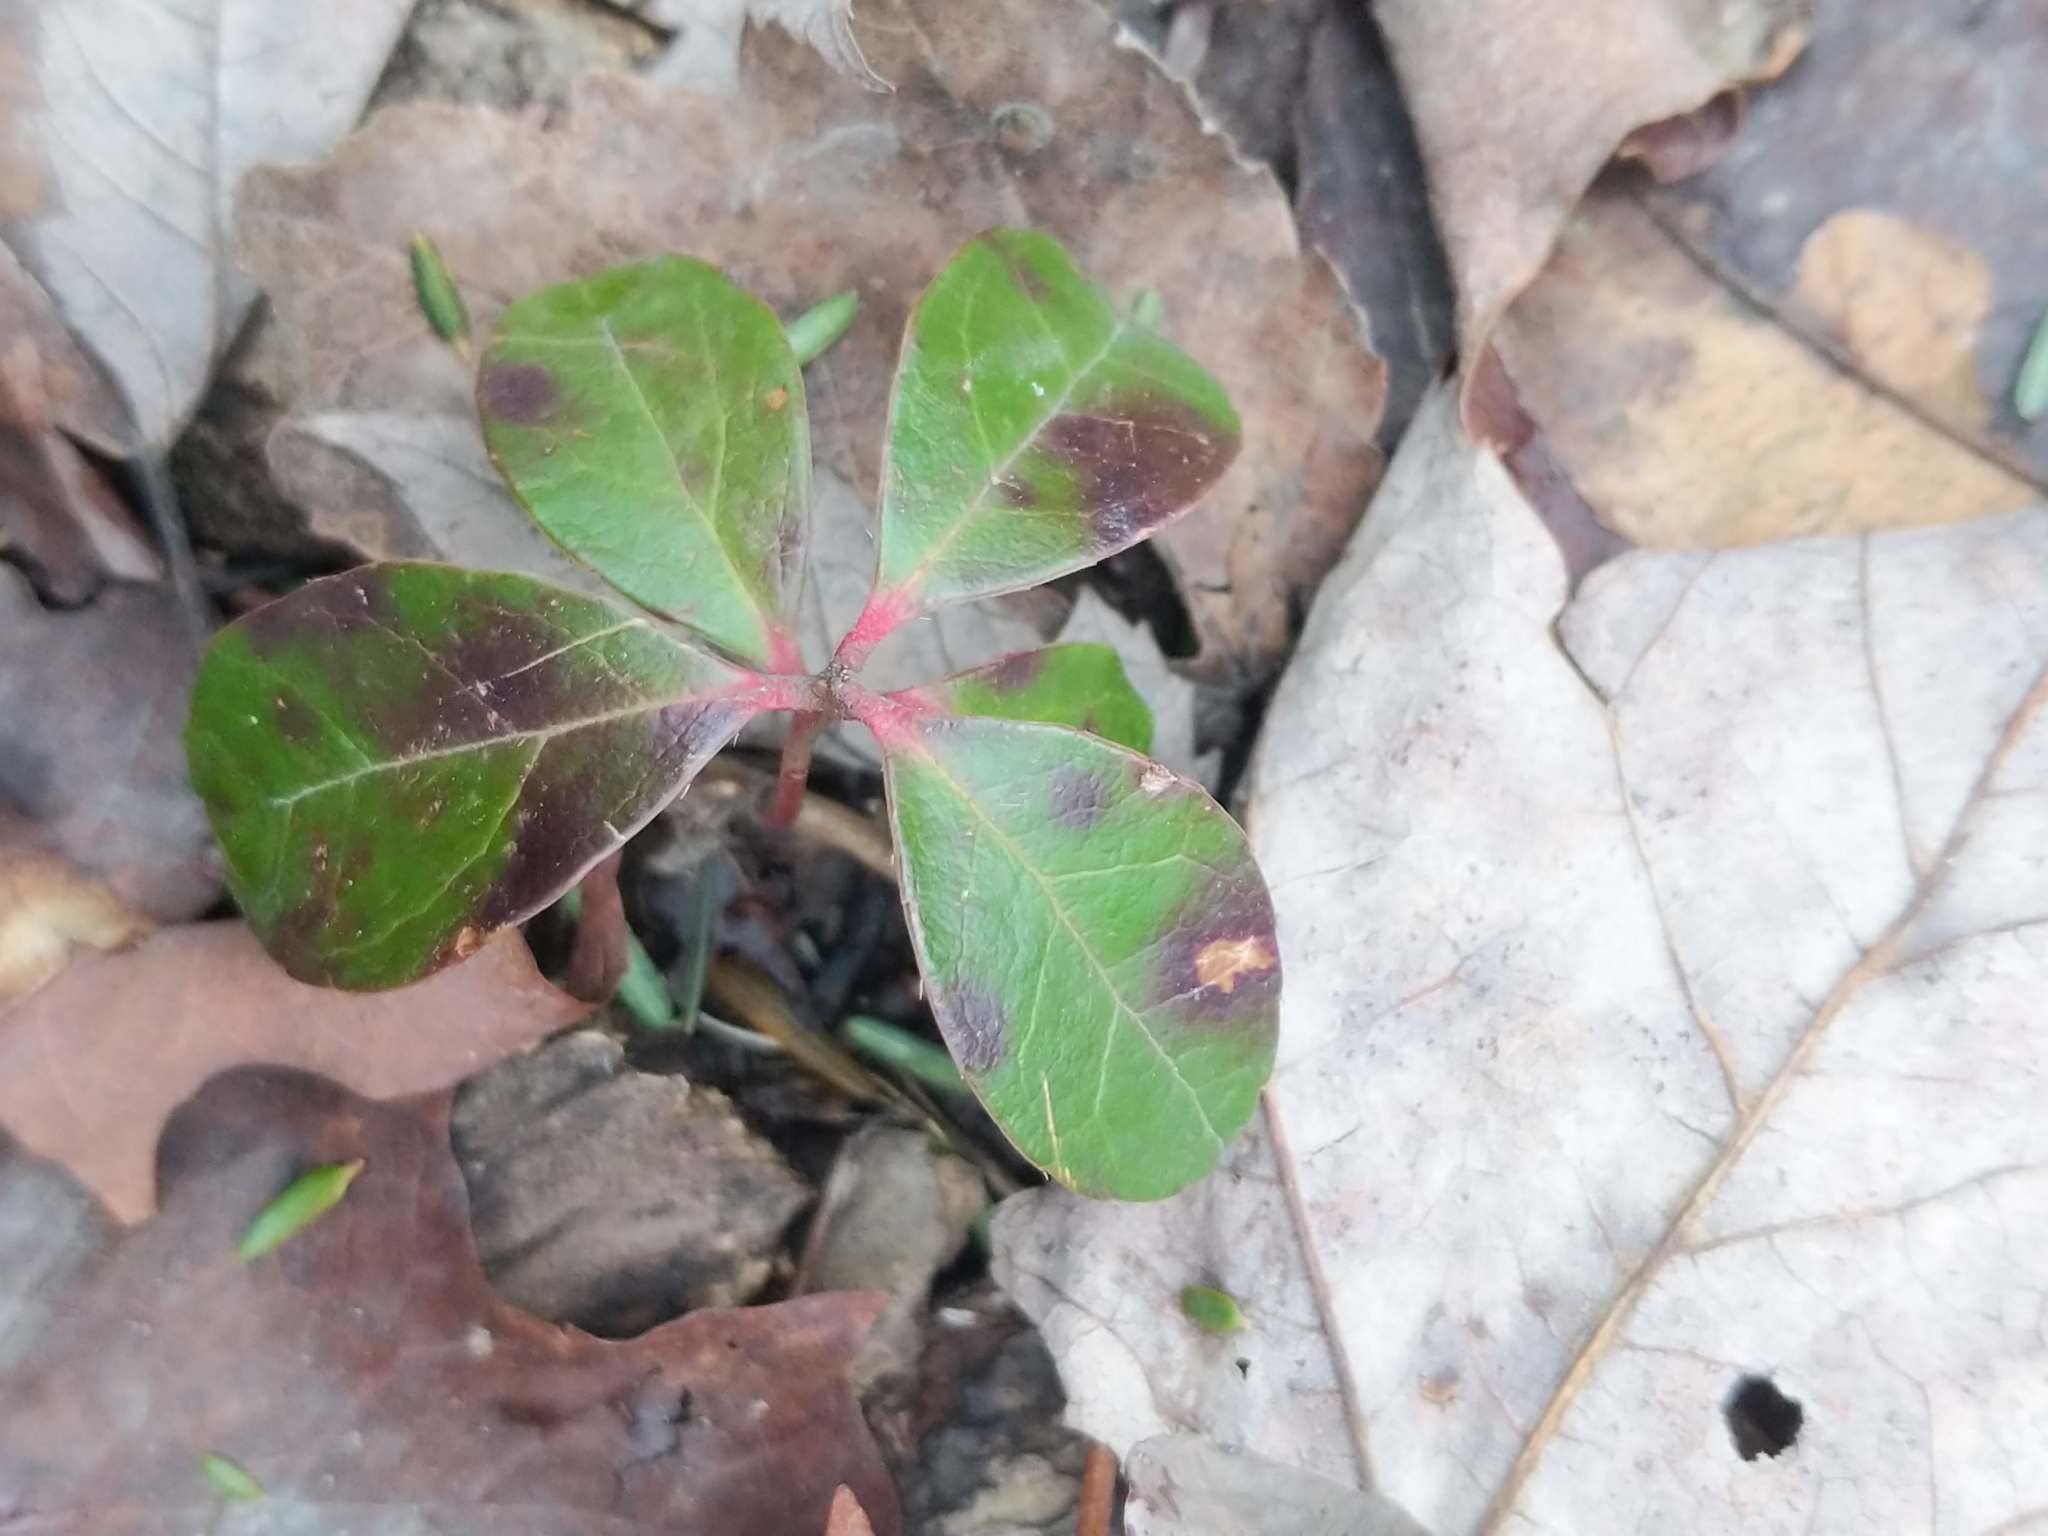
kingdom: Plantae
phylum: Tracheophyta
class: Magnoliopsida
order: Ericales
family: Ericaceae
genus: Gaultheria
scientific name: Gaultheria procumbens
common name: Checkerberry
